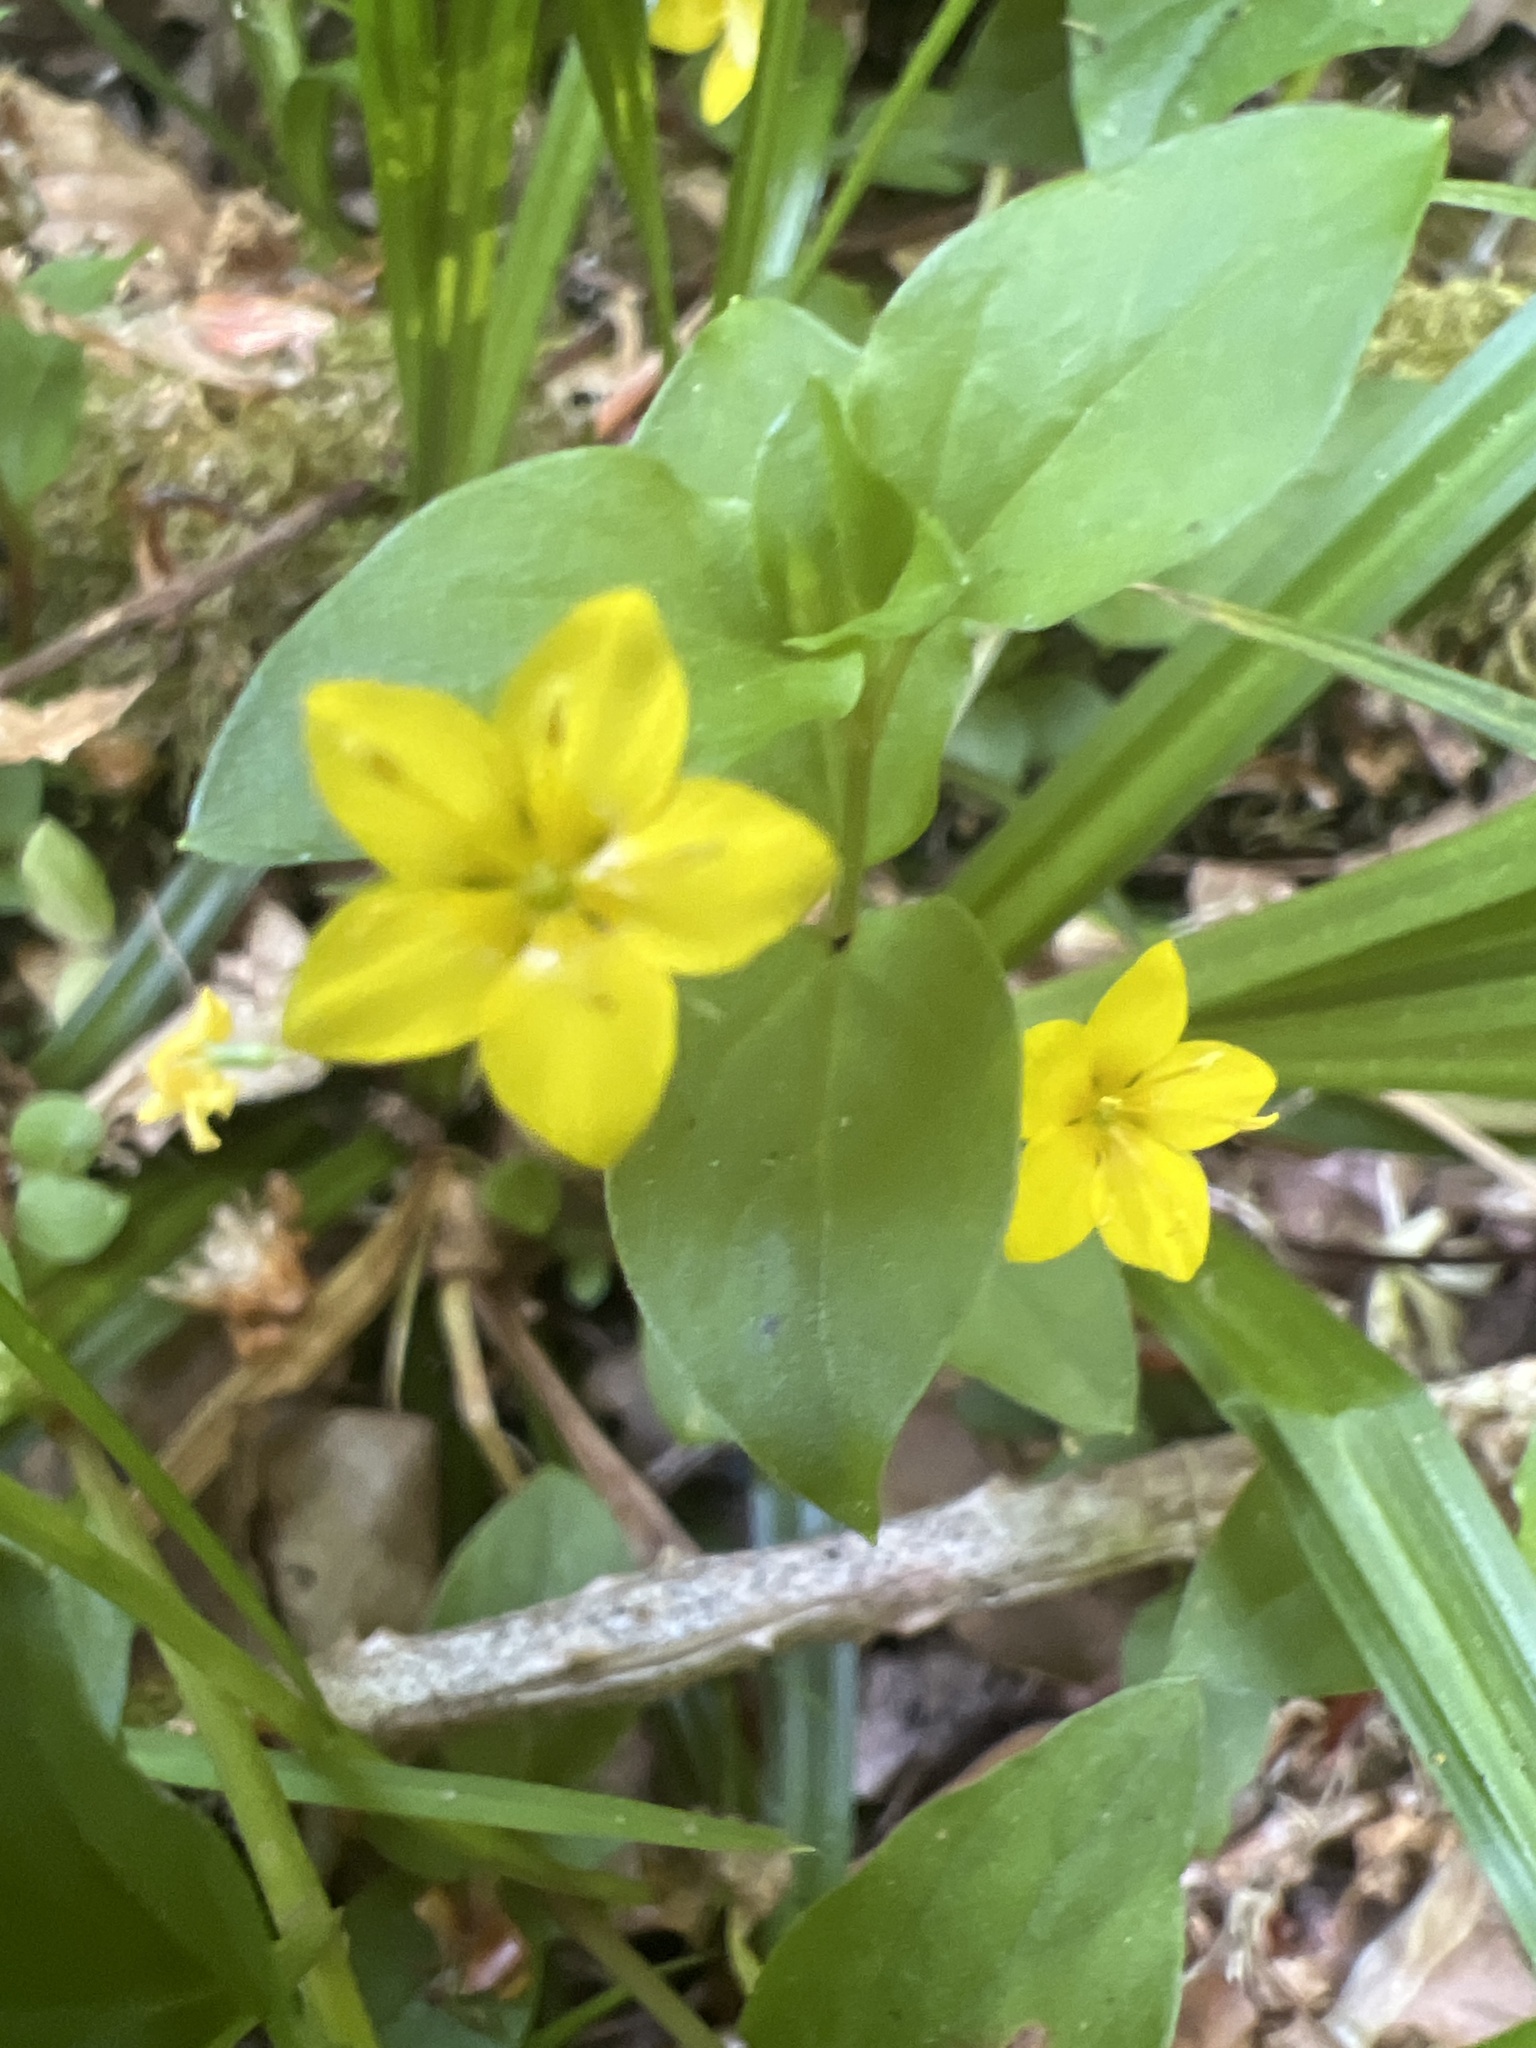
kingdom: Plantae
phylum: Tracheophyta
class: Magnoliopsida
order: Ericales
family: Primulaceae
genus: Lysimachia
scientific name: Lysimachia nemorum
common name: Yellow pimpernel
